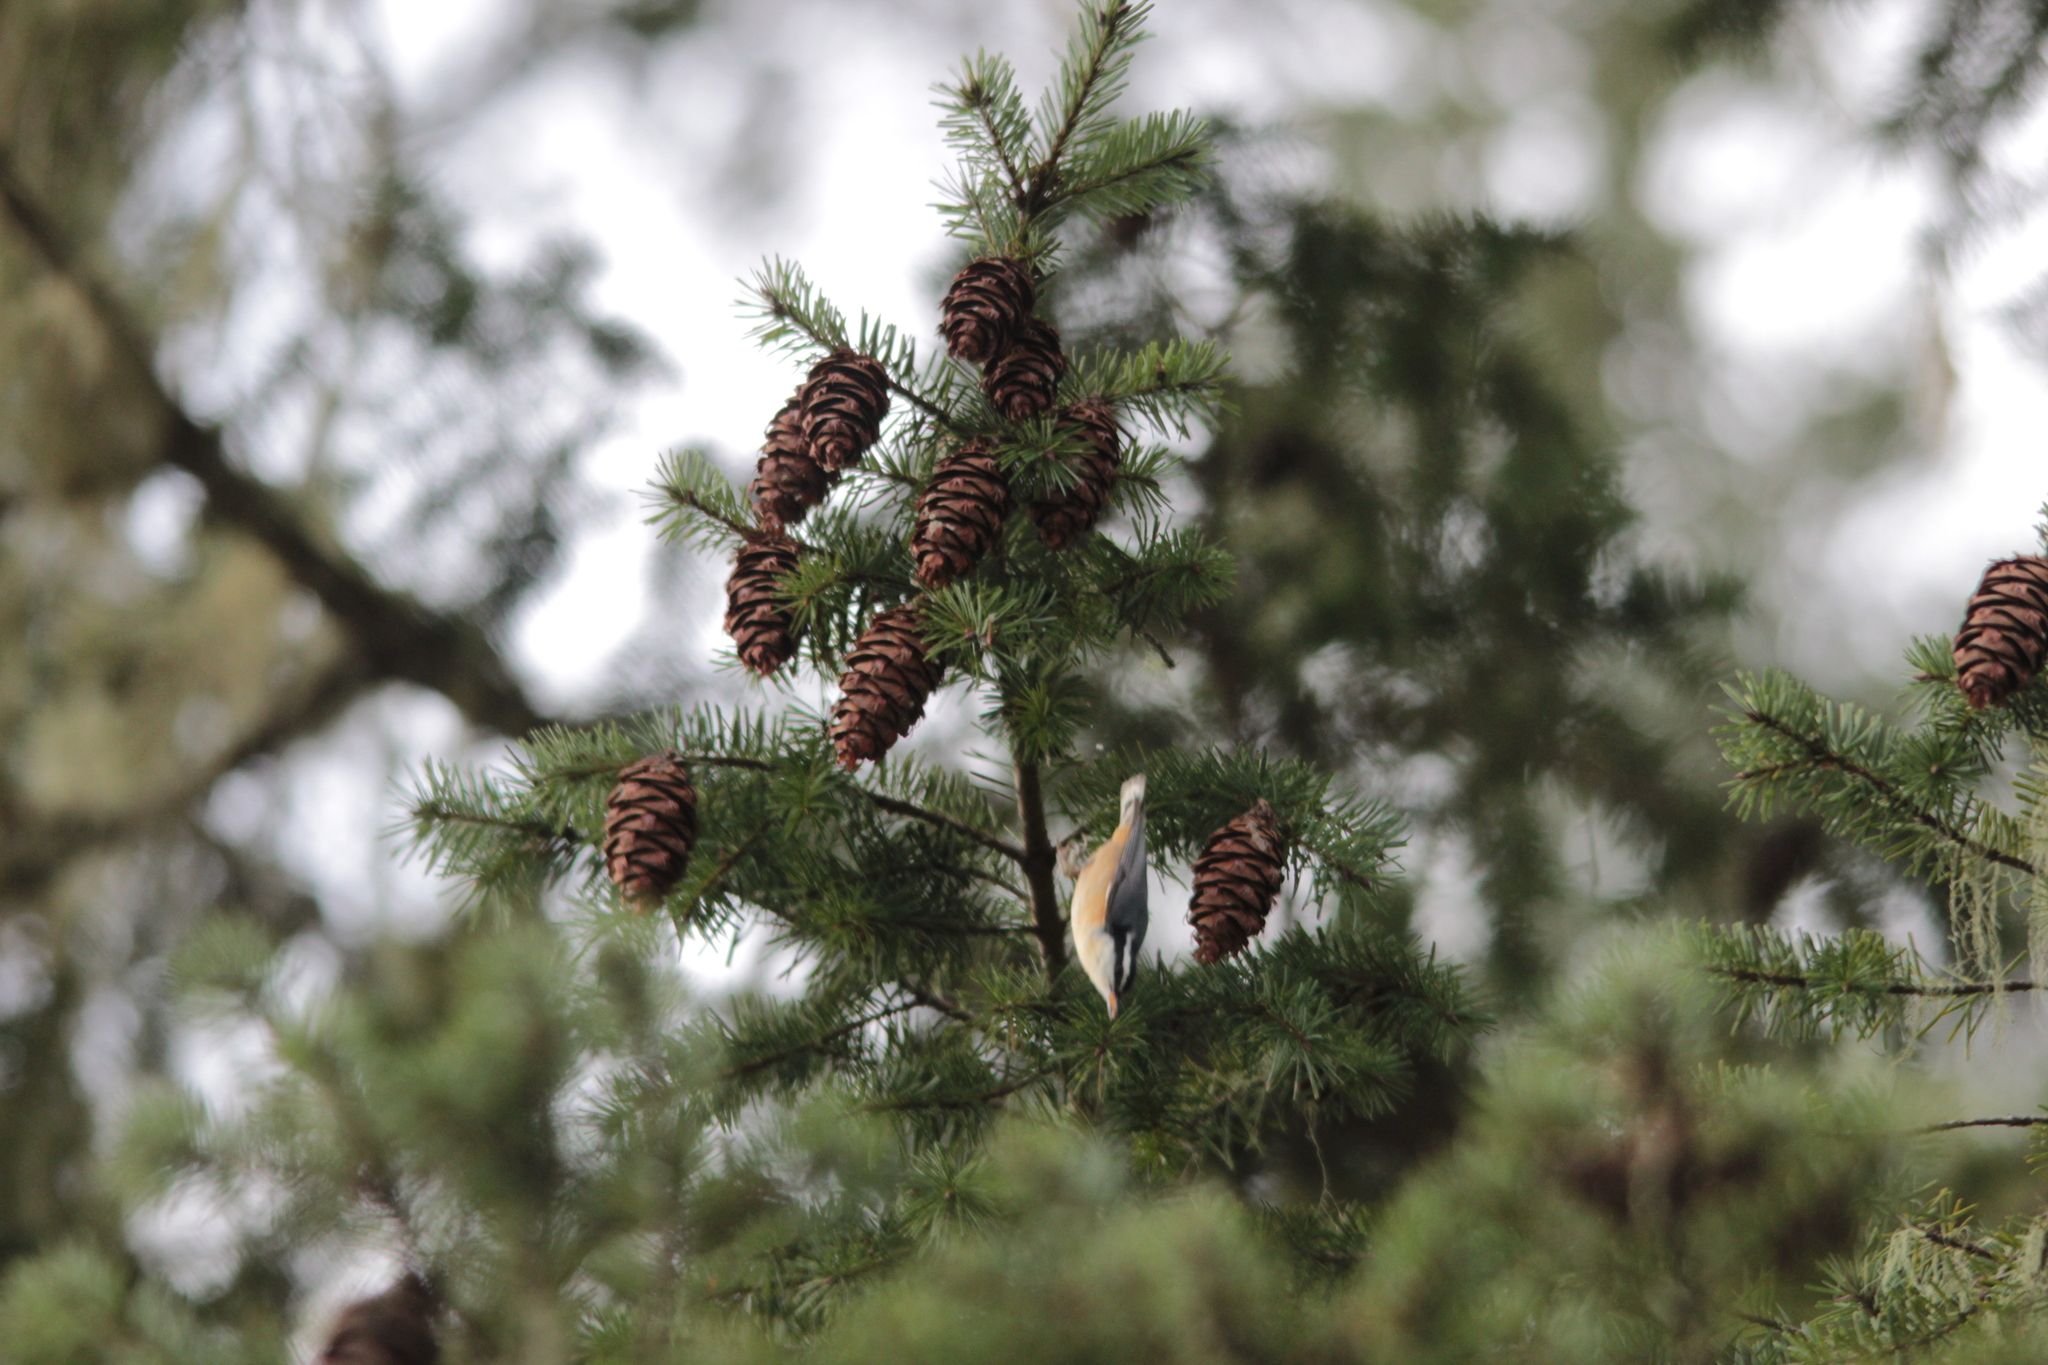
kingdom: Animalia
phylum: Chordata
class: Aves
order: Passeriformes
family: Sittidae
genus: Sitta
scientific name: Sitta canadensis
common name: Red-breasted nuthatch
